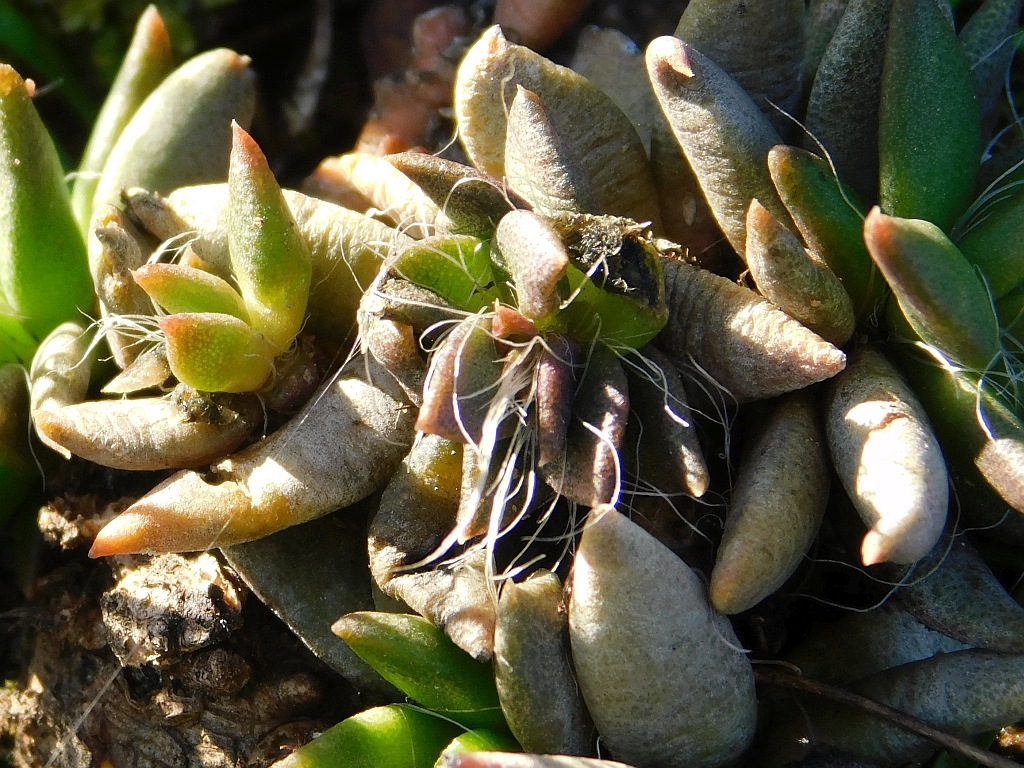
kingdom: Plantae
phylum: Tracheophyta
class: Magnoliopsida
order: Caryophyllales
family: Anacampserotaceae
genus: Anacampseros
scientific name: Anacampseros lanceolata
